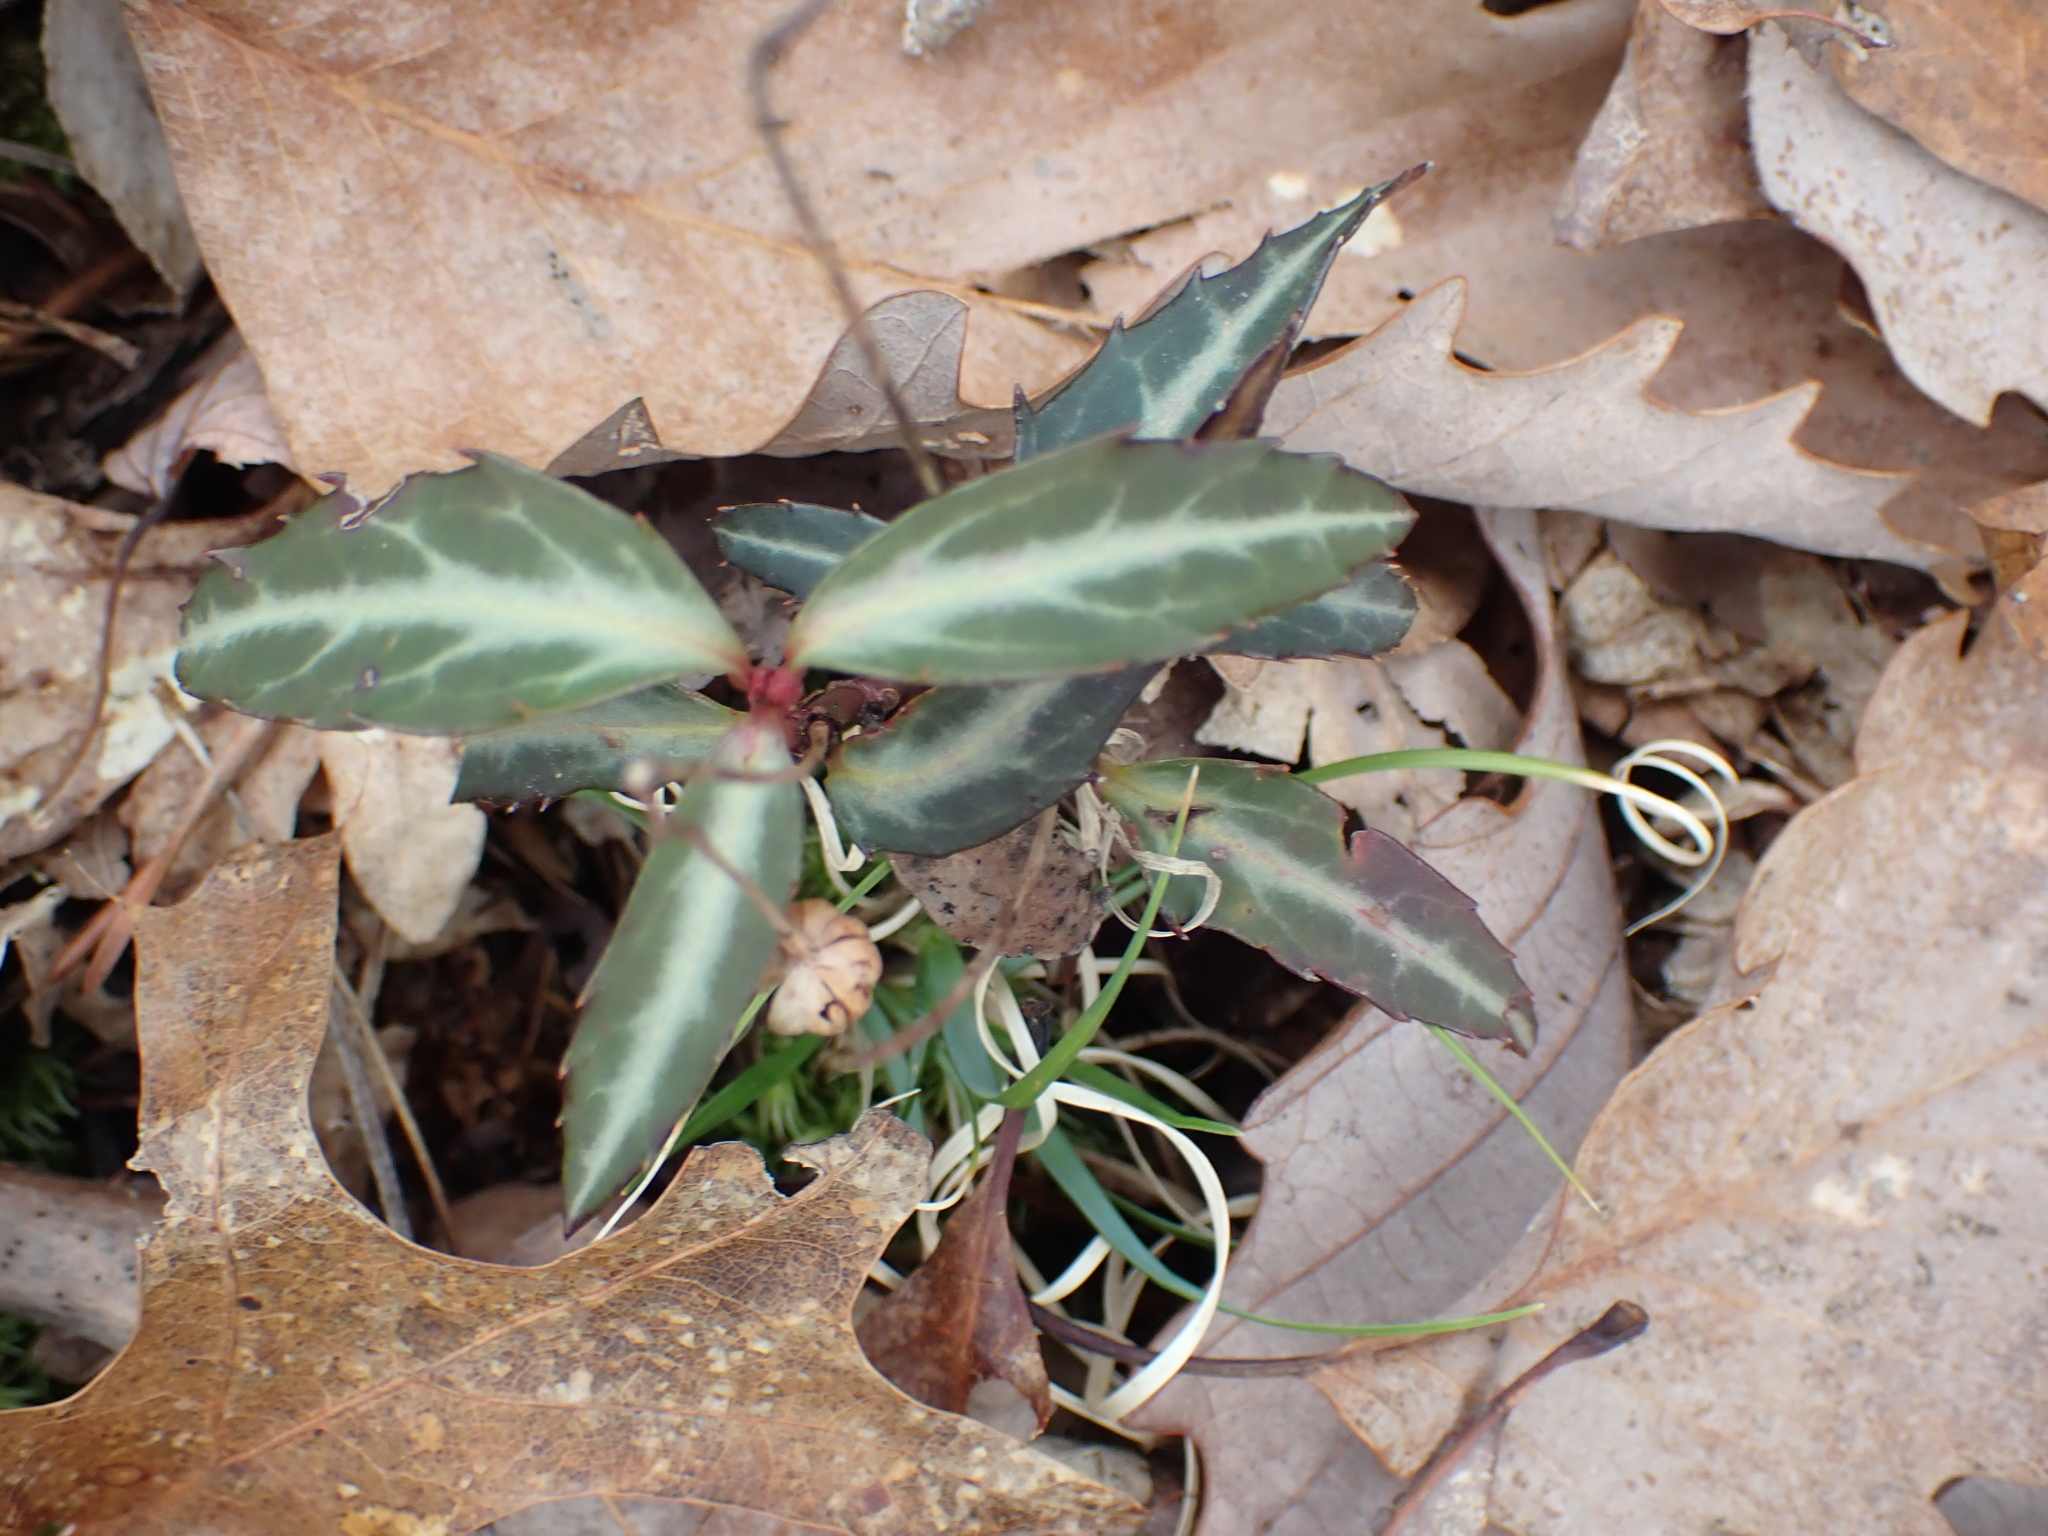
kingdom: Plantae
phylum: Tracheophyta
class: Magnoliopsida
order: Ericales
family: Ericaceae
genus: Chimaphila
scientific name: Chimaphila maculata
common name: Spotted pipsissewa
